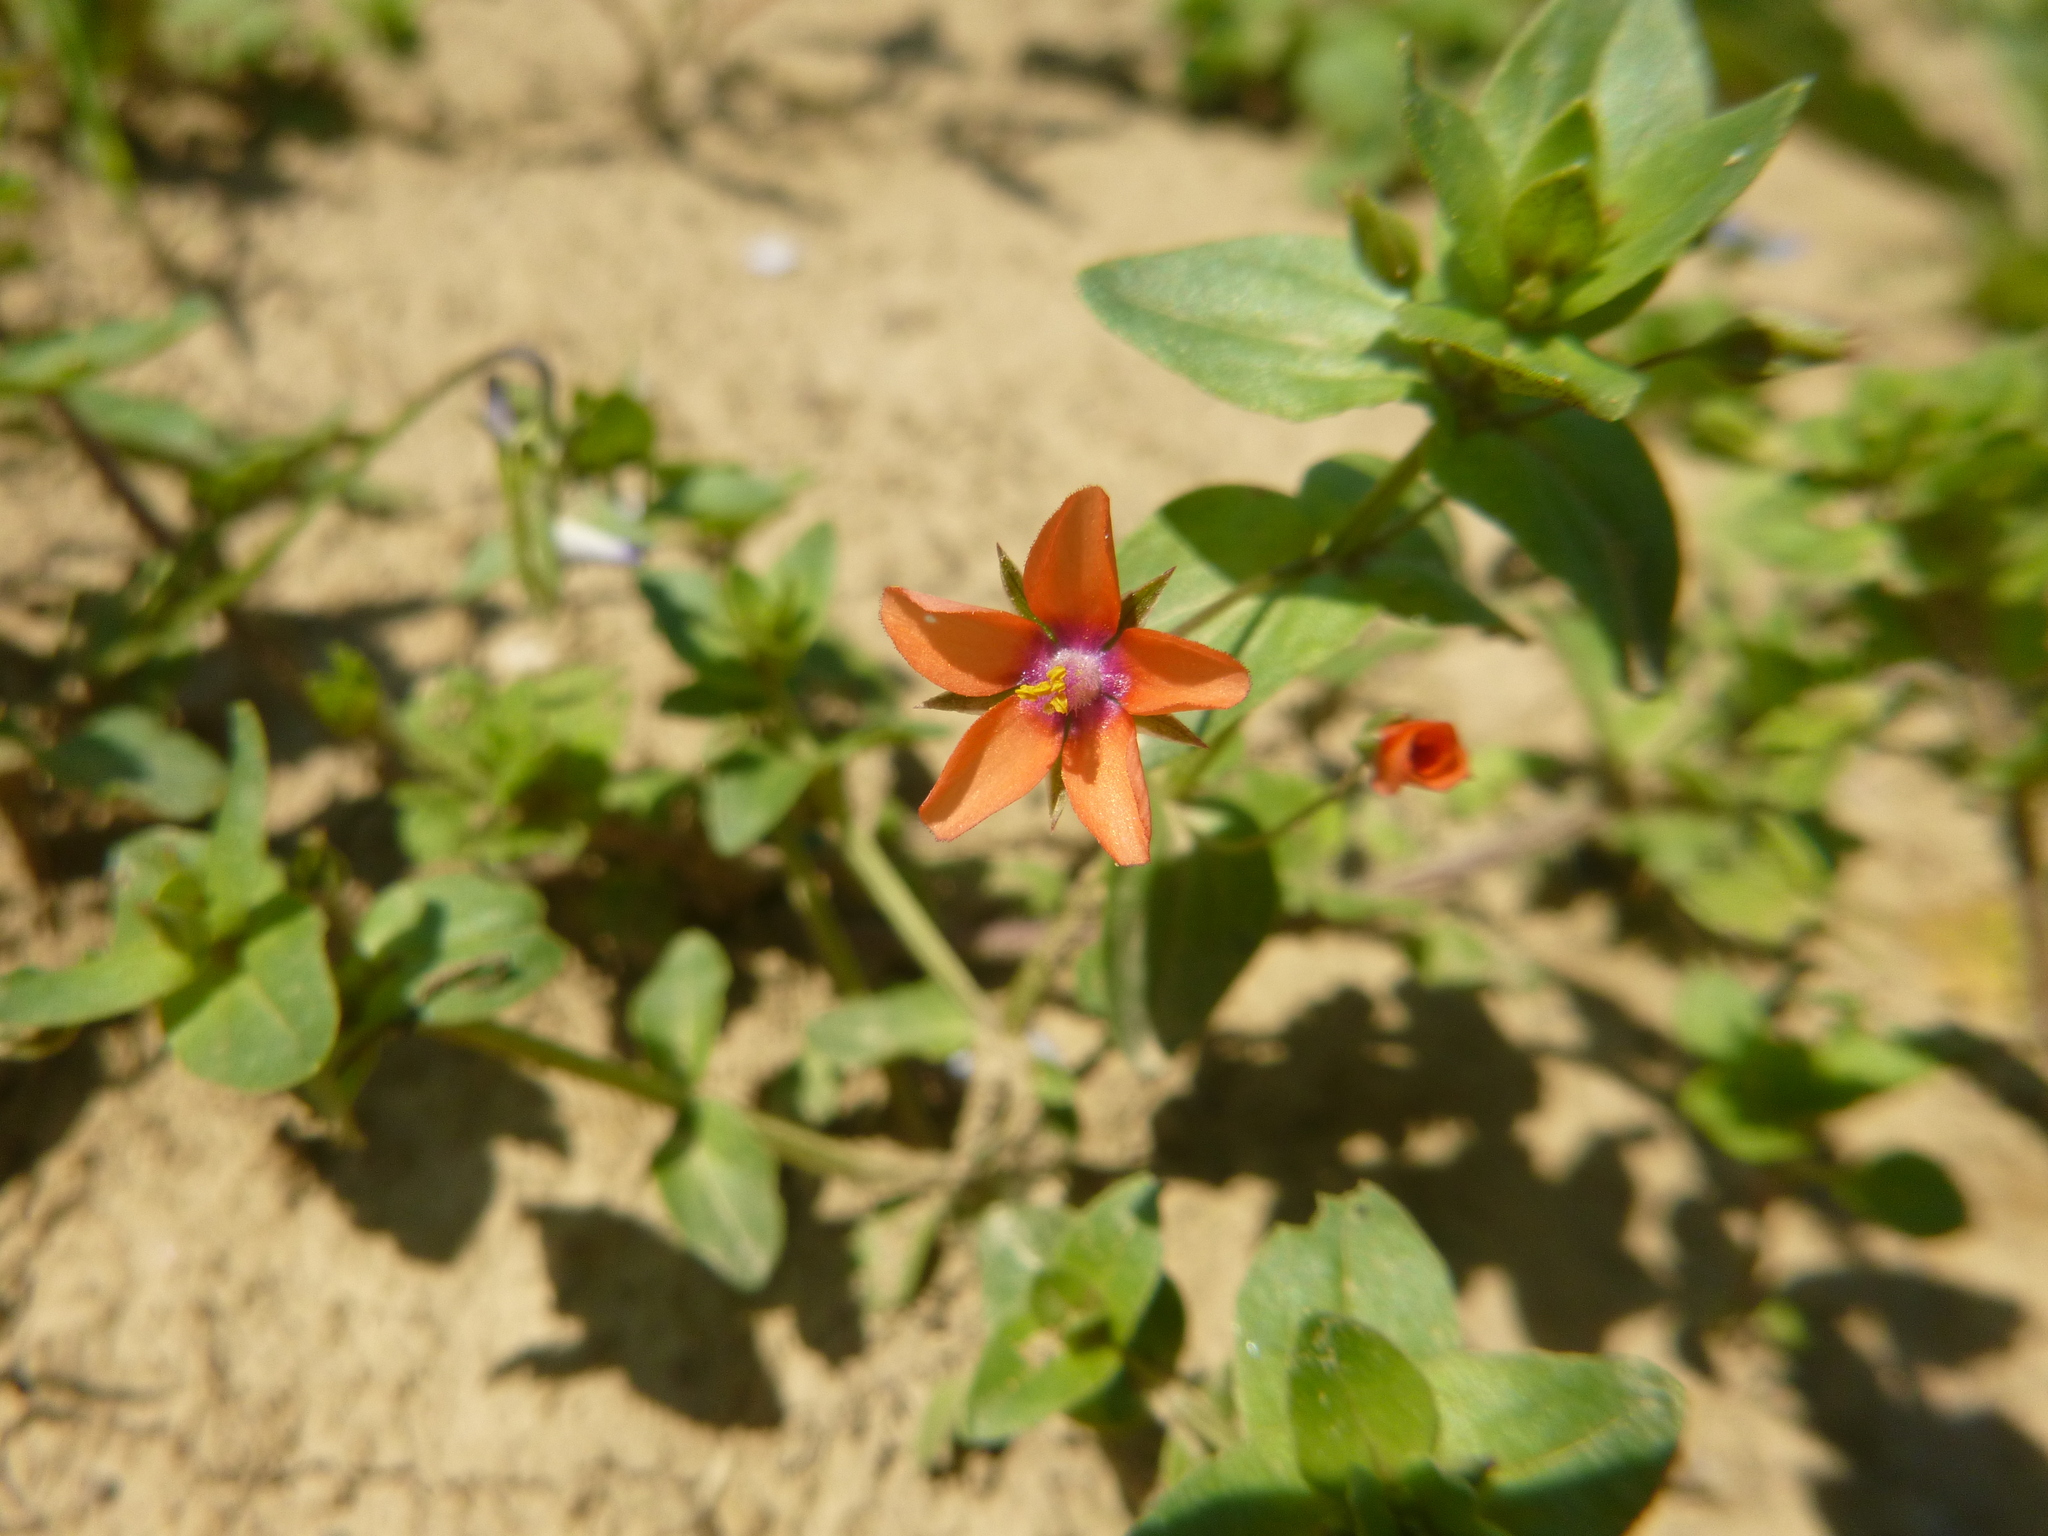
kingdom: Plantae
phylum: Tracheophyta
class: Magnoliopsida
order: Ericales
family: Primulaceae
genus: Lysimachia
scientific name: Lysimachia arvensis
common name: Scarlet pimpernel
